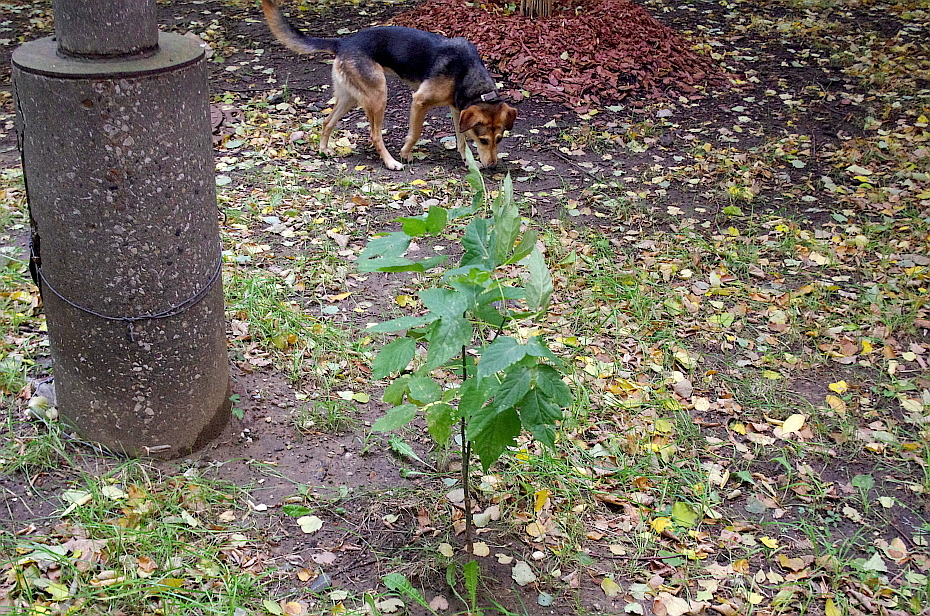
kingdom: Plantae
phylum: Tracheophyta
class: Magnoliopsida
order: Sapindales
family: Sapindaceae
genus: Acer
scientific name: Acer negundo
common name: Ashleaf maple
